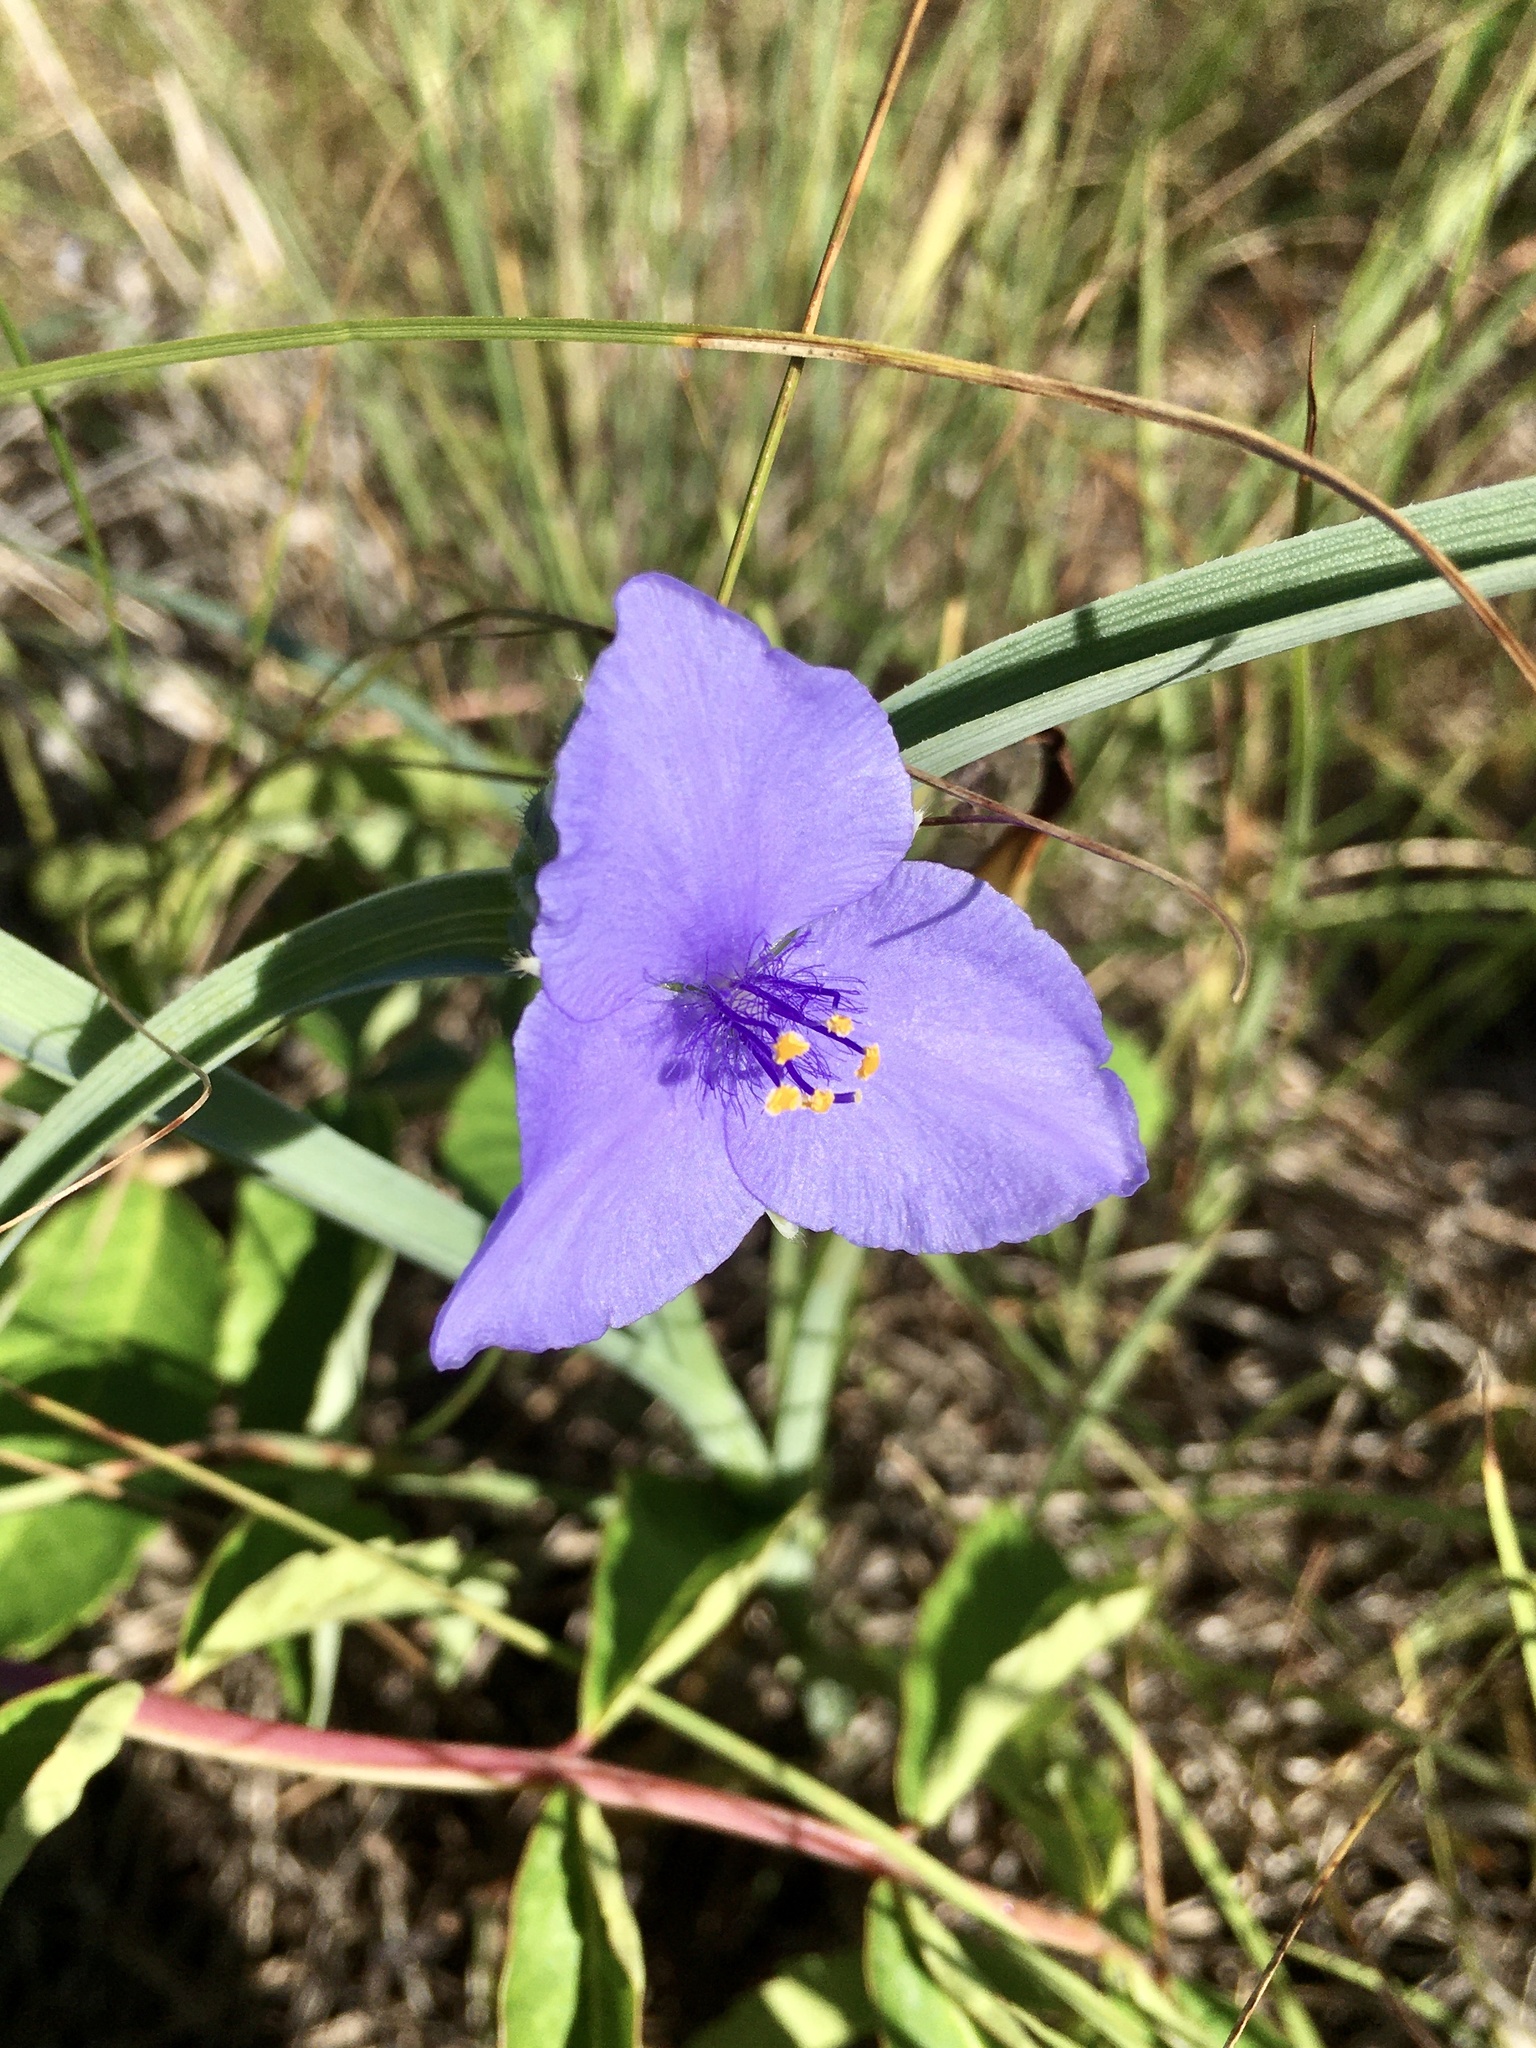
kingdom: Plantae
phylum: Tracheophyta
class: Liliopsida
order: Commelinales
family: Commelinaceae
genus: Tradescantia
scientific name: Tradescantia occidentalis
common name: Prairie spiderwort
